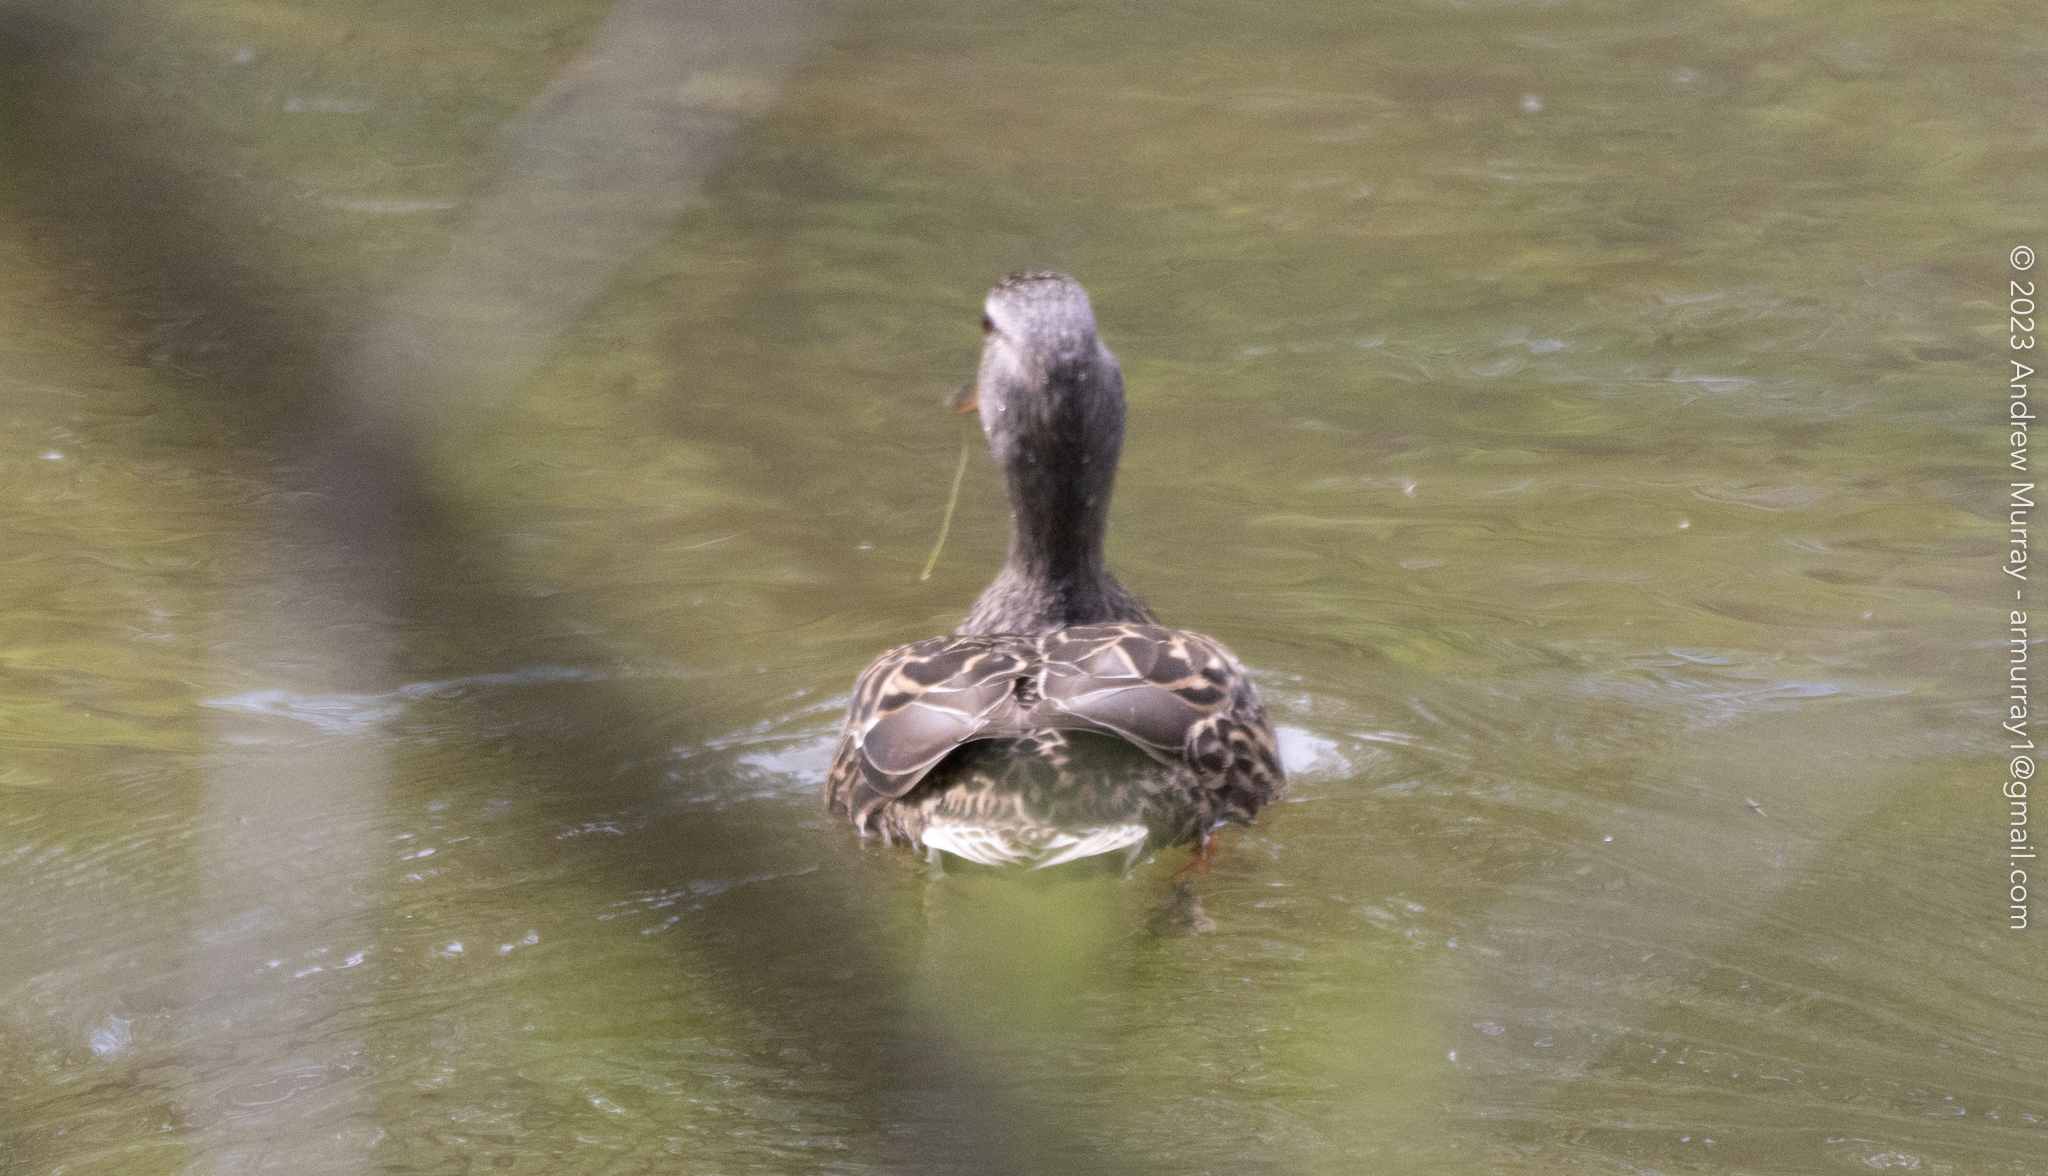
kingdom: Animalia
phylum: Chordata
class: Aves
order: Anseriformes
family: Anatidae
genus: Anas
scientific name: Anas platyrhynchos
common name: Mallard
